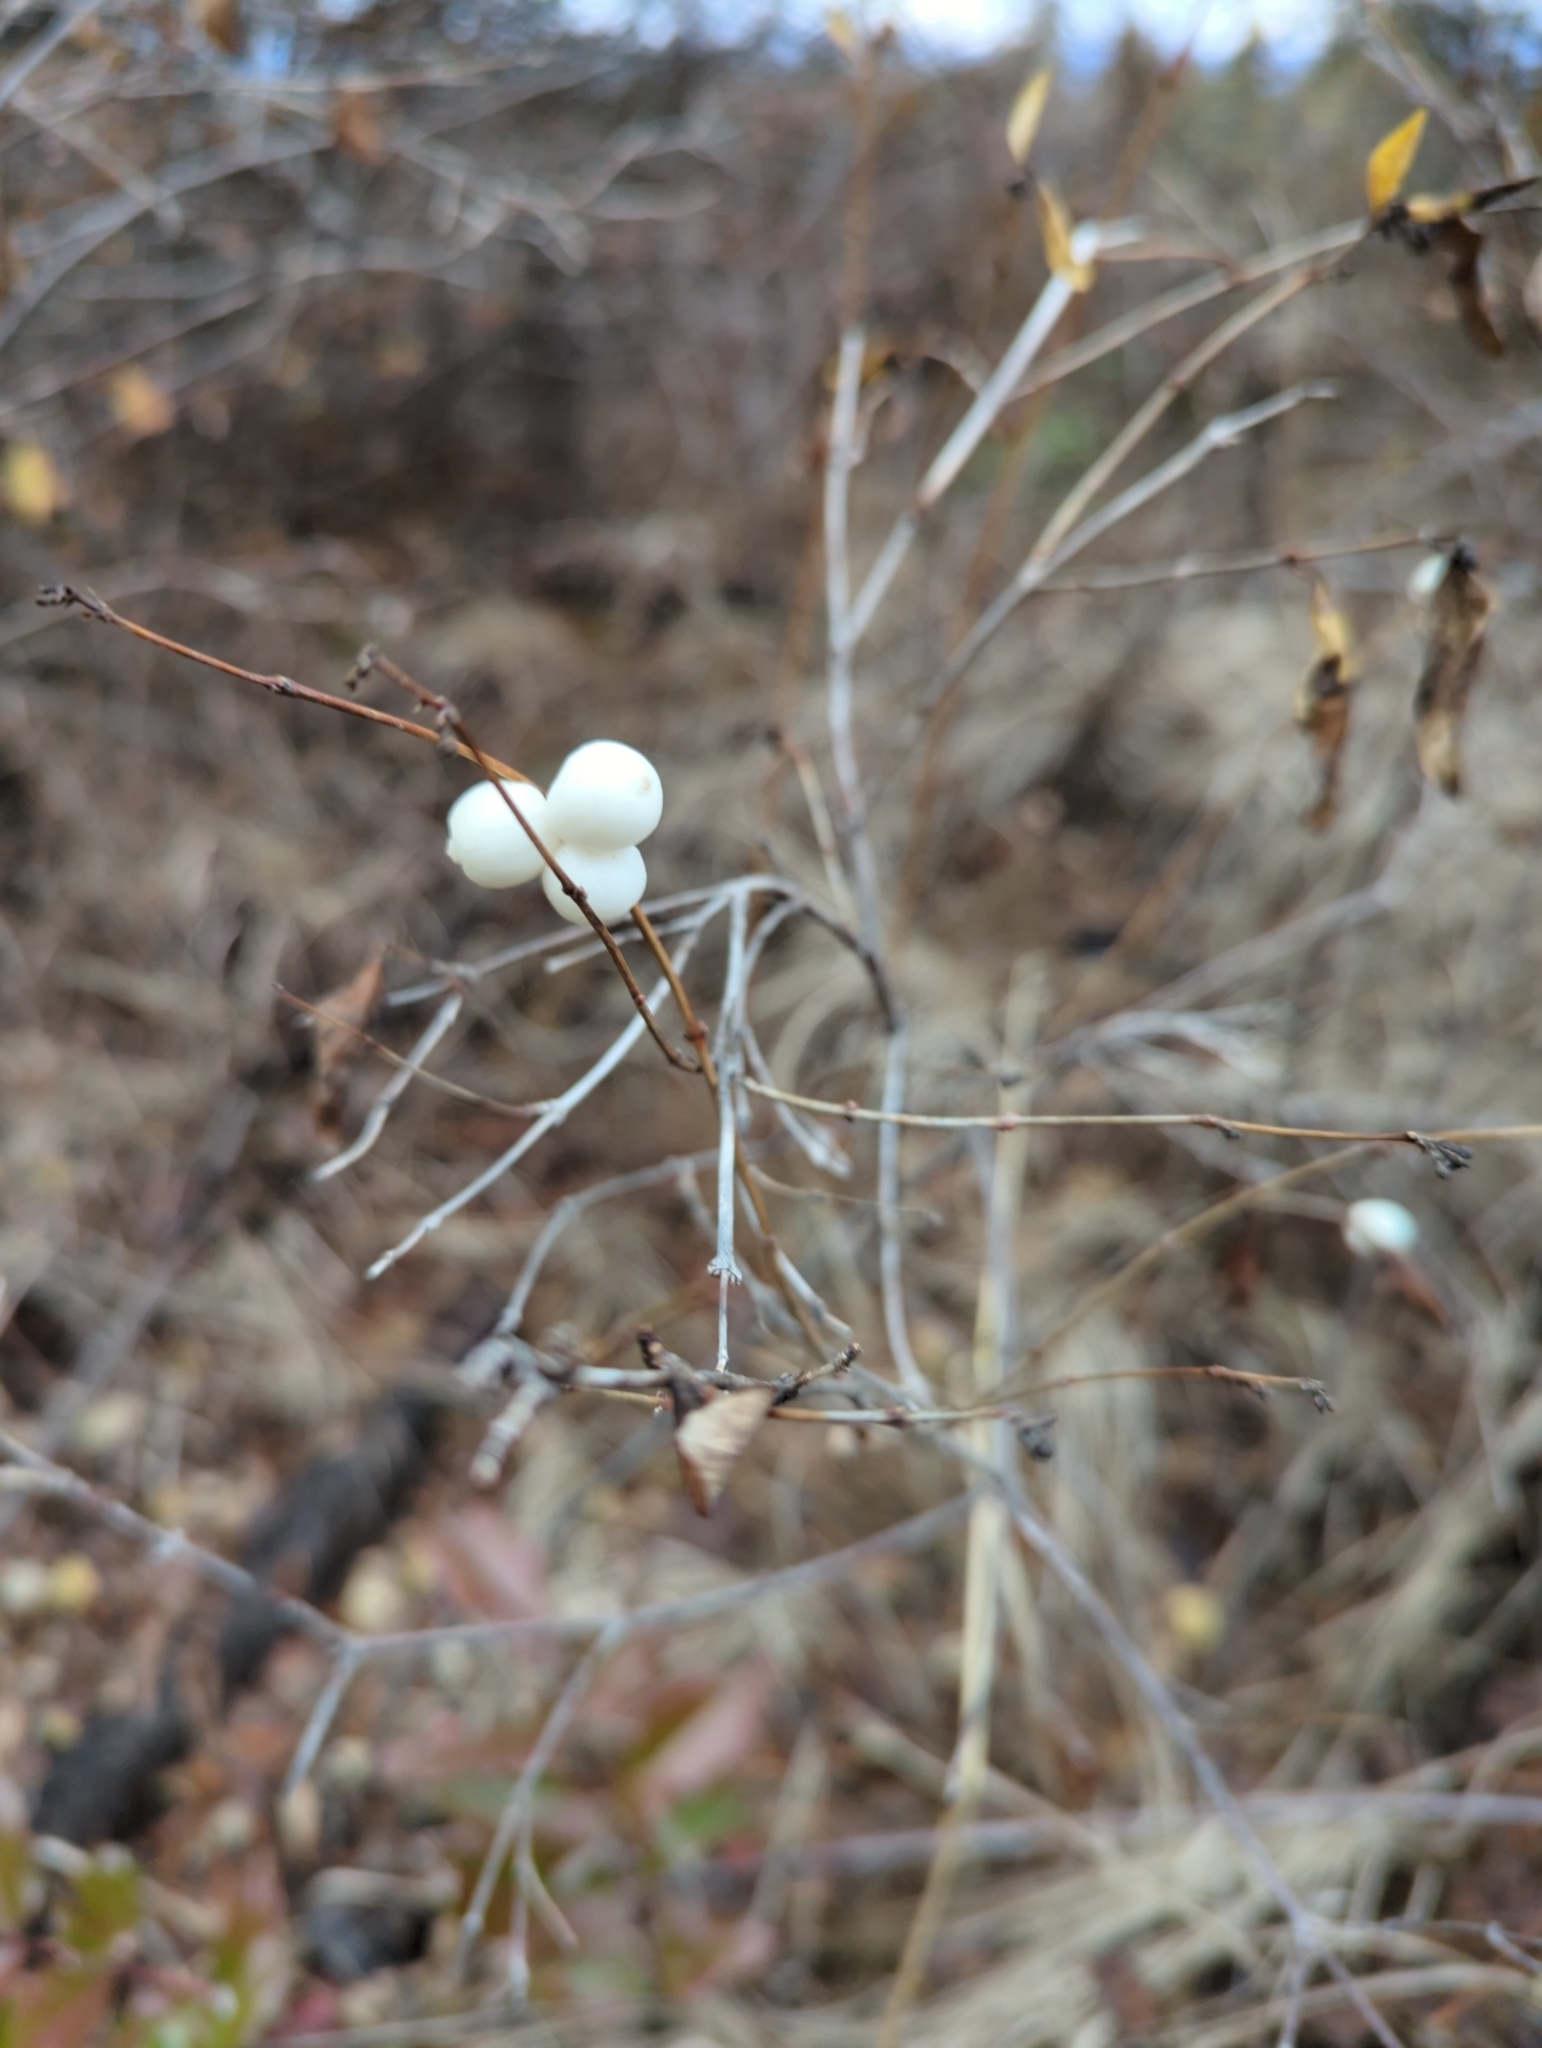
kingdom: Plantae
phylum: Tracheophyta
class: Magnoliopsida
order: Dipsacales
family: Caprifoliaceae
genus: Symphoricarpos
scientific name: Symphoricarpos albus
